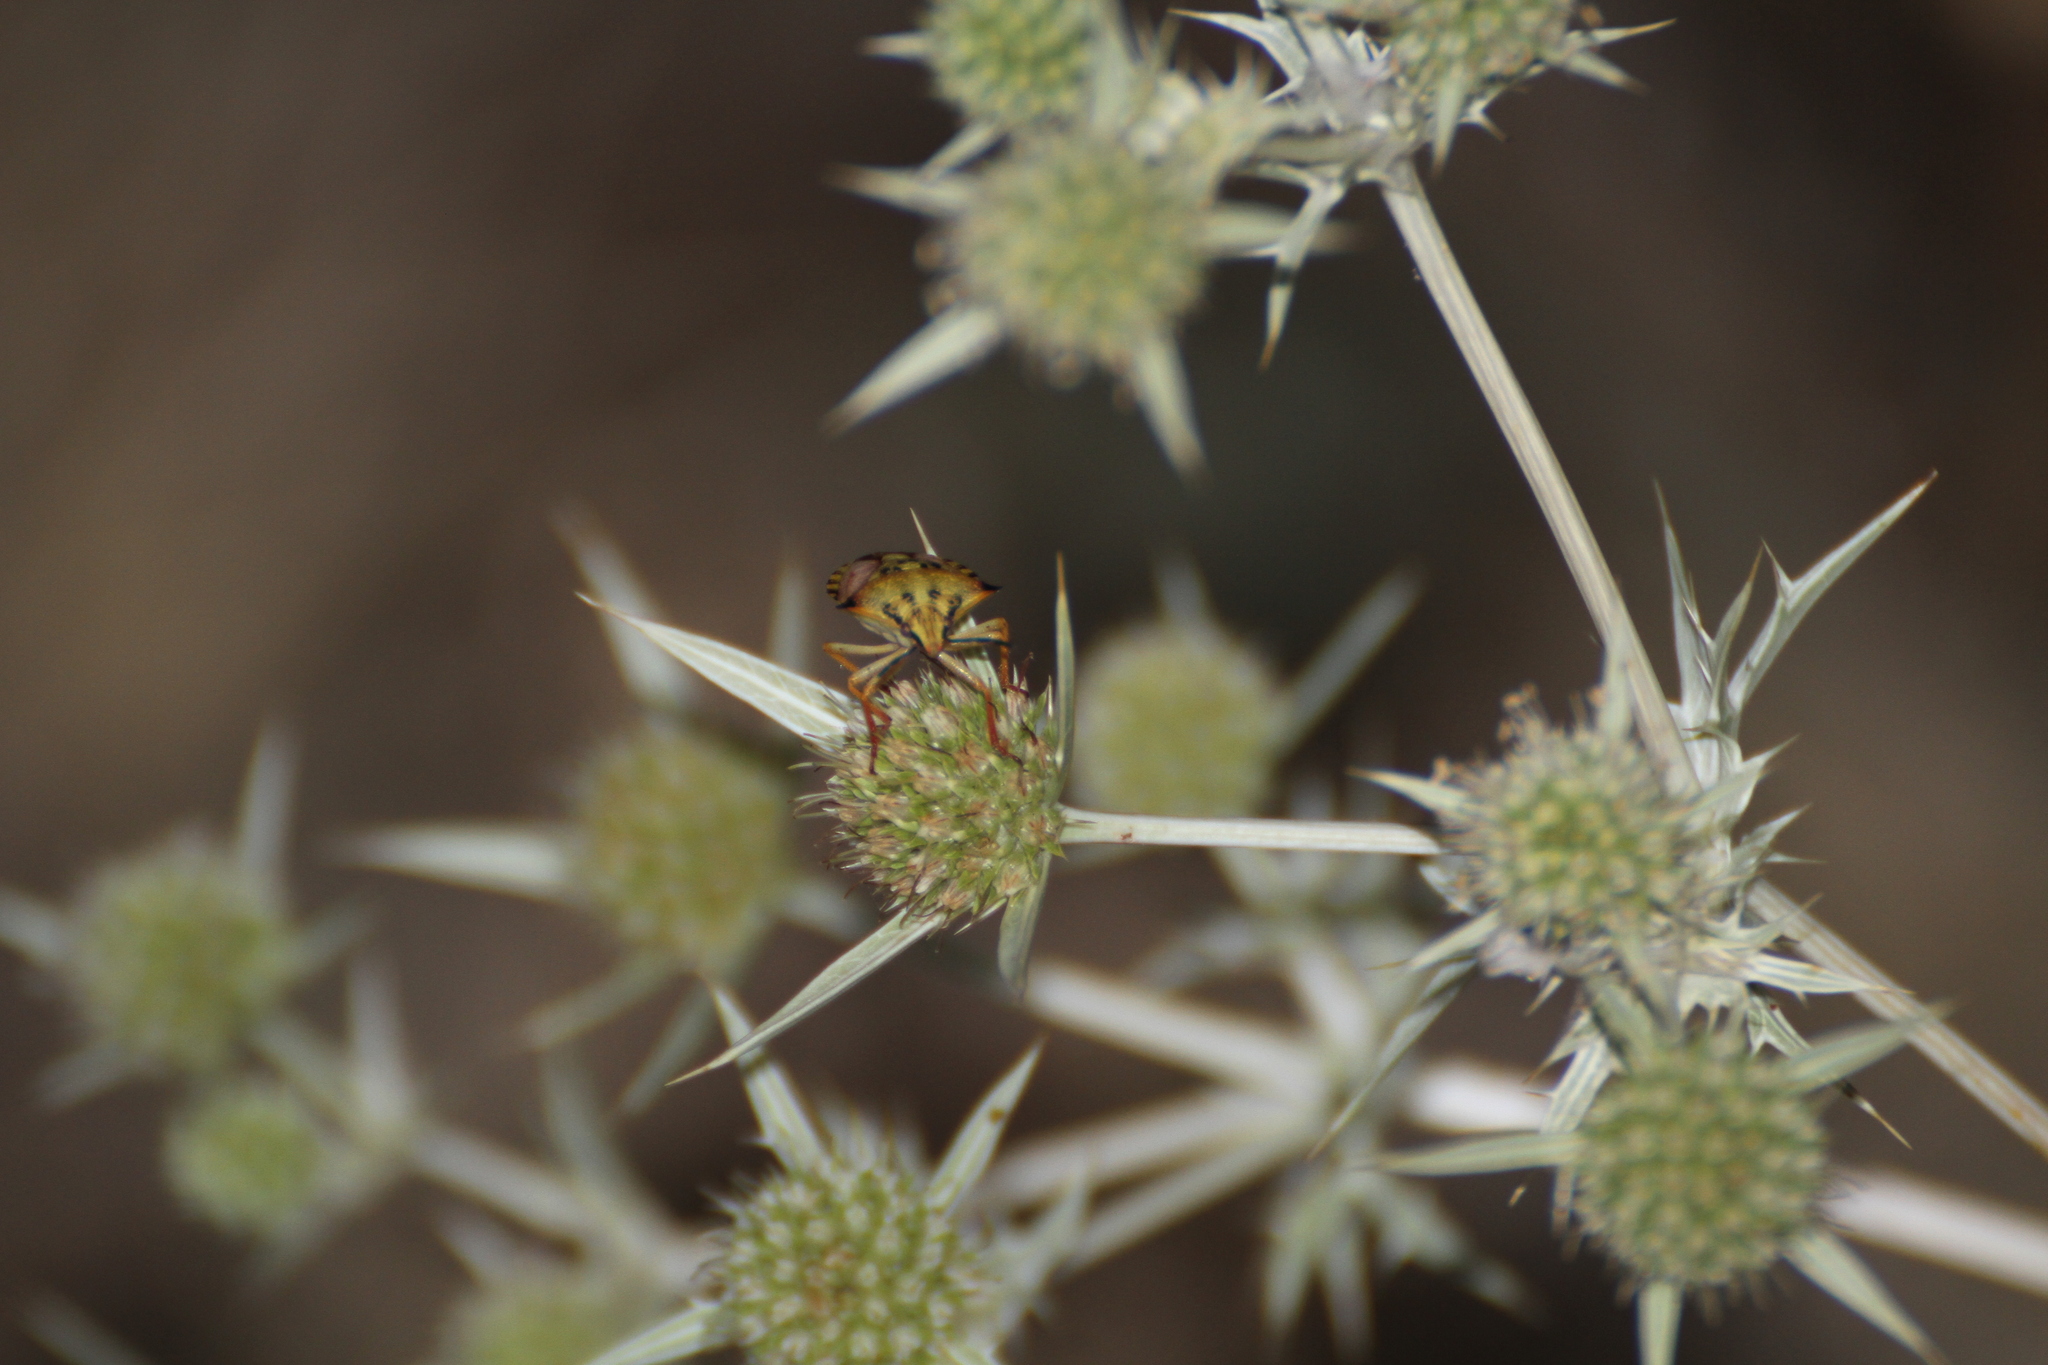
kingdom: Animalia
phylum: Arthropoda
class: Insecta
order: Hemiptera
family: Pentatomidae
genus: Carpocoris
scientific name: Carpocoris mediterraneus
